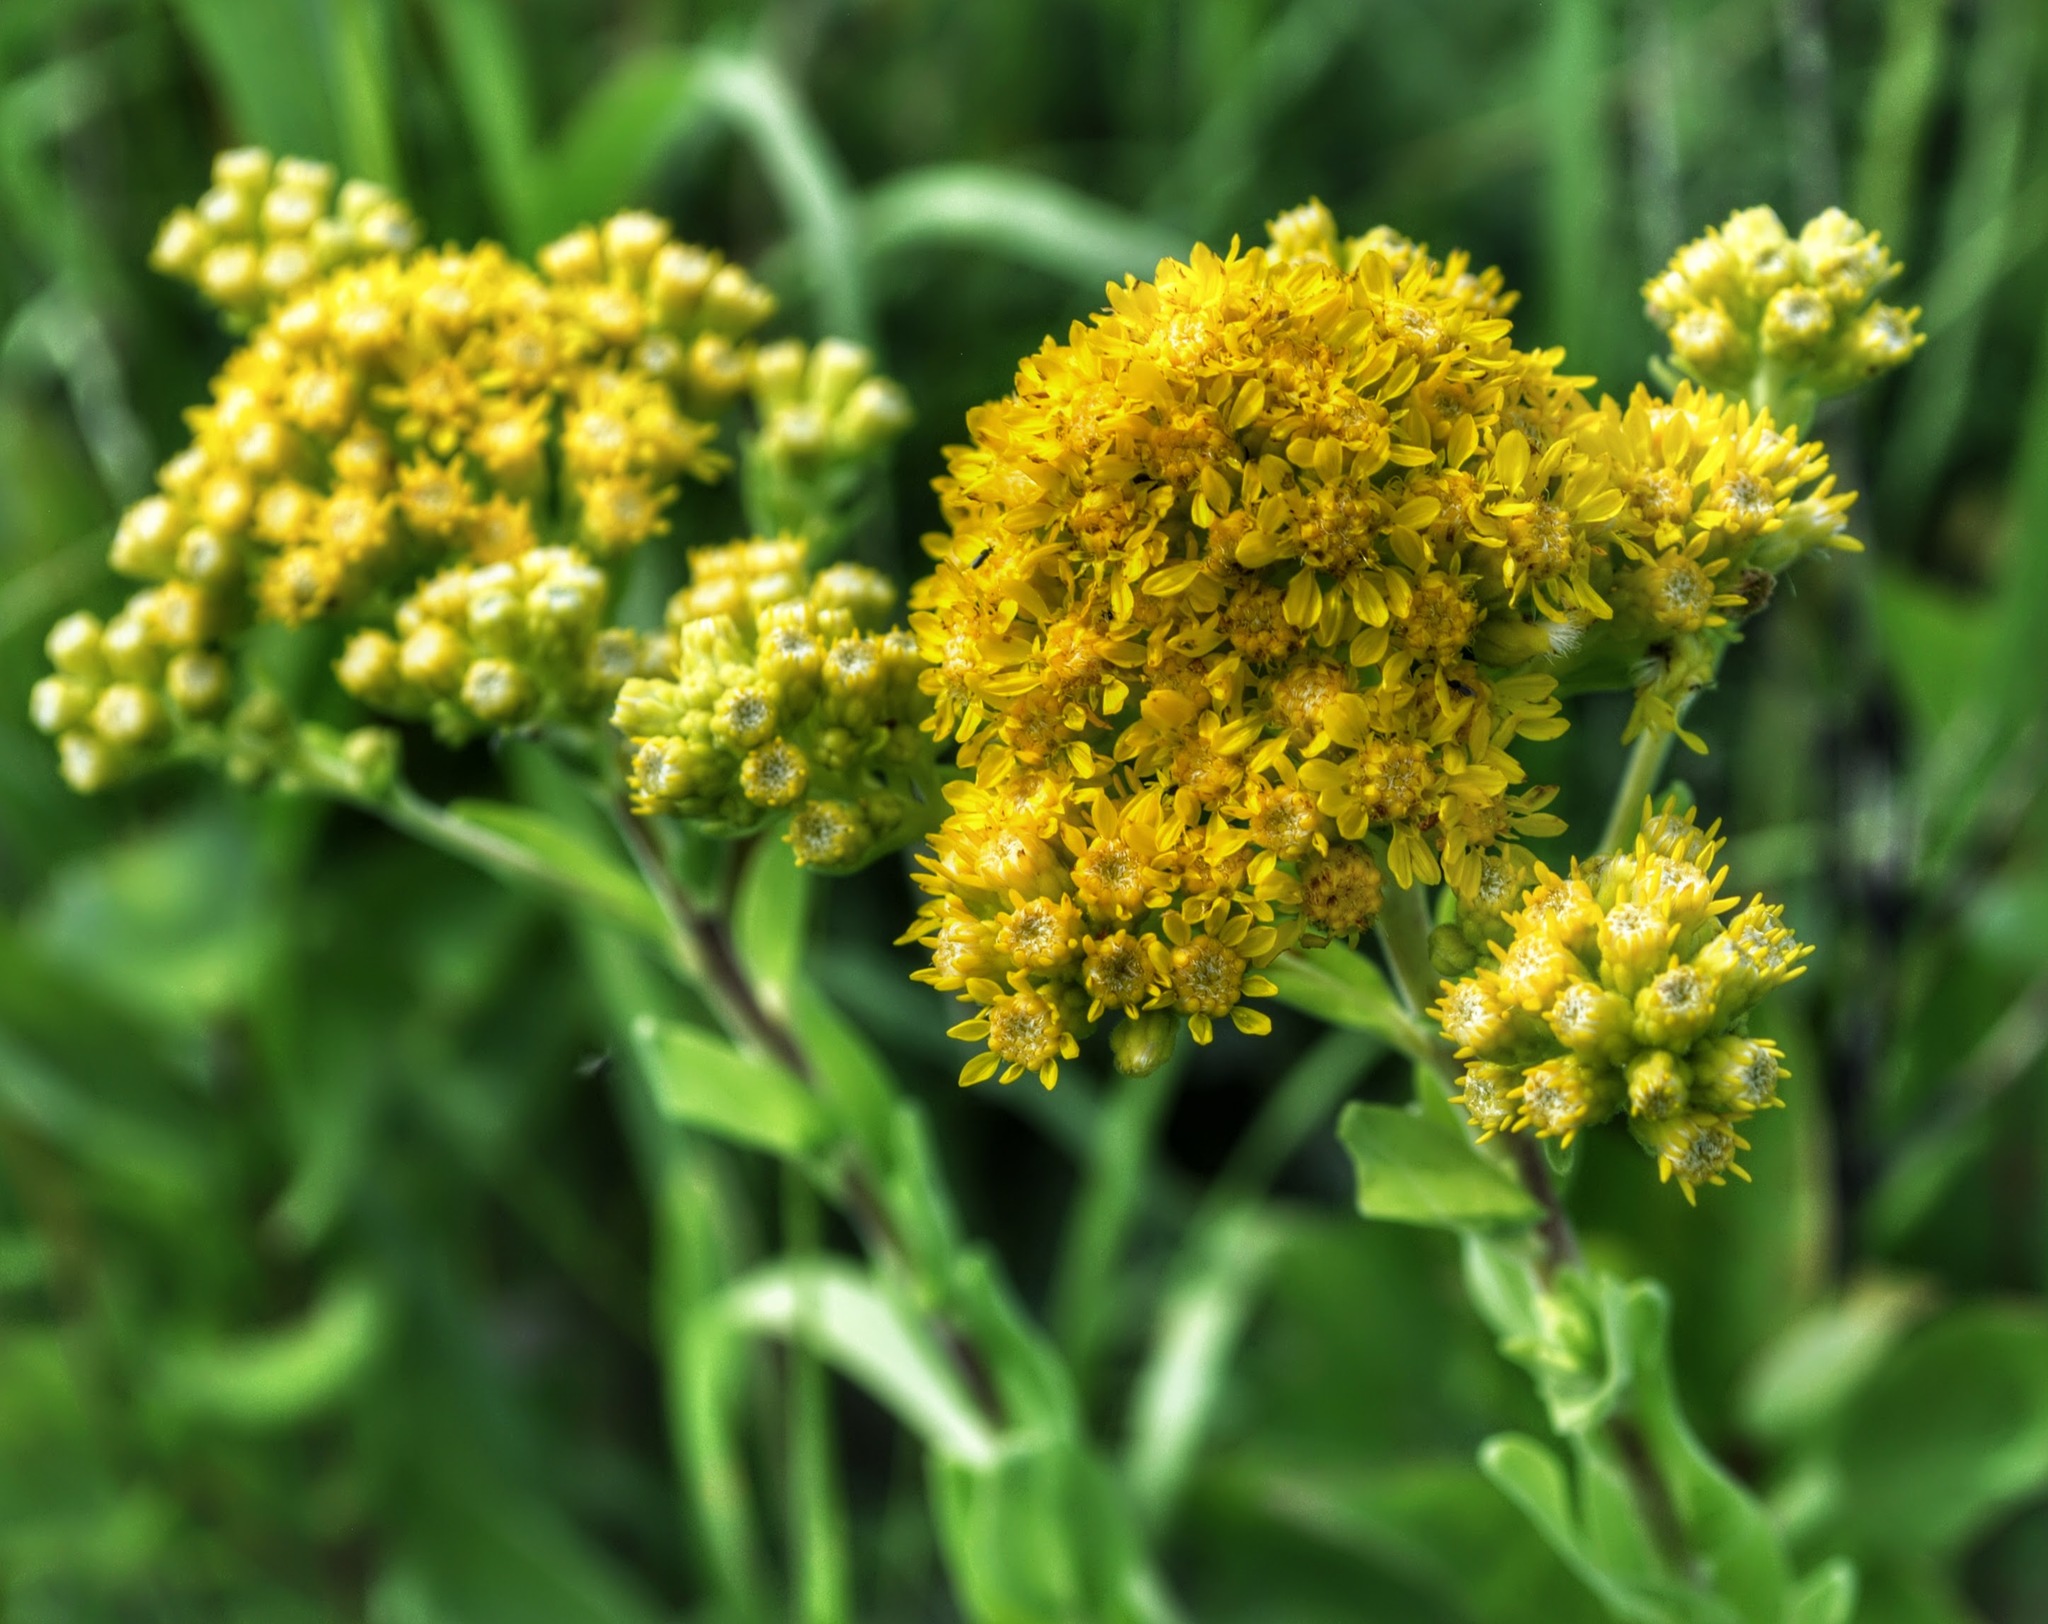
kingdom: Plantae
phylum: Tracheophyta
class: Magnoliopsida
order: Asterales
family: Asteraceae
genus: Solidago
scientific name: Solidago rigida
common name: Rigid goldenrod
